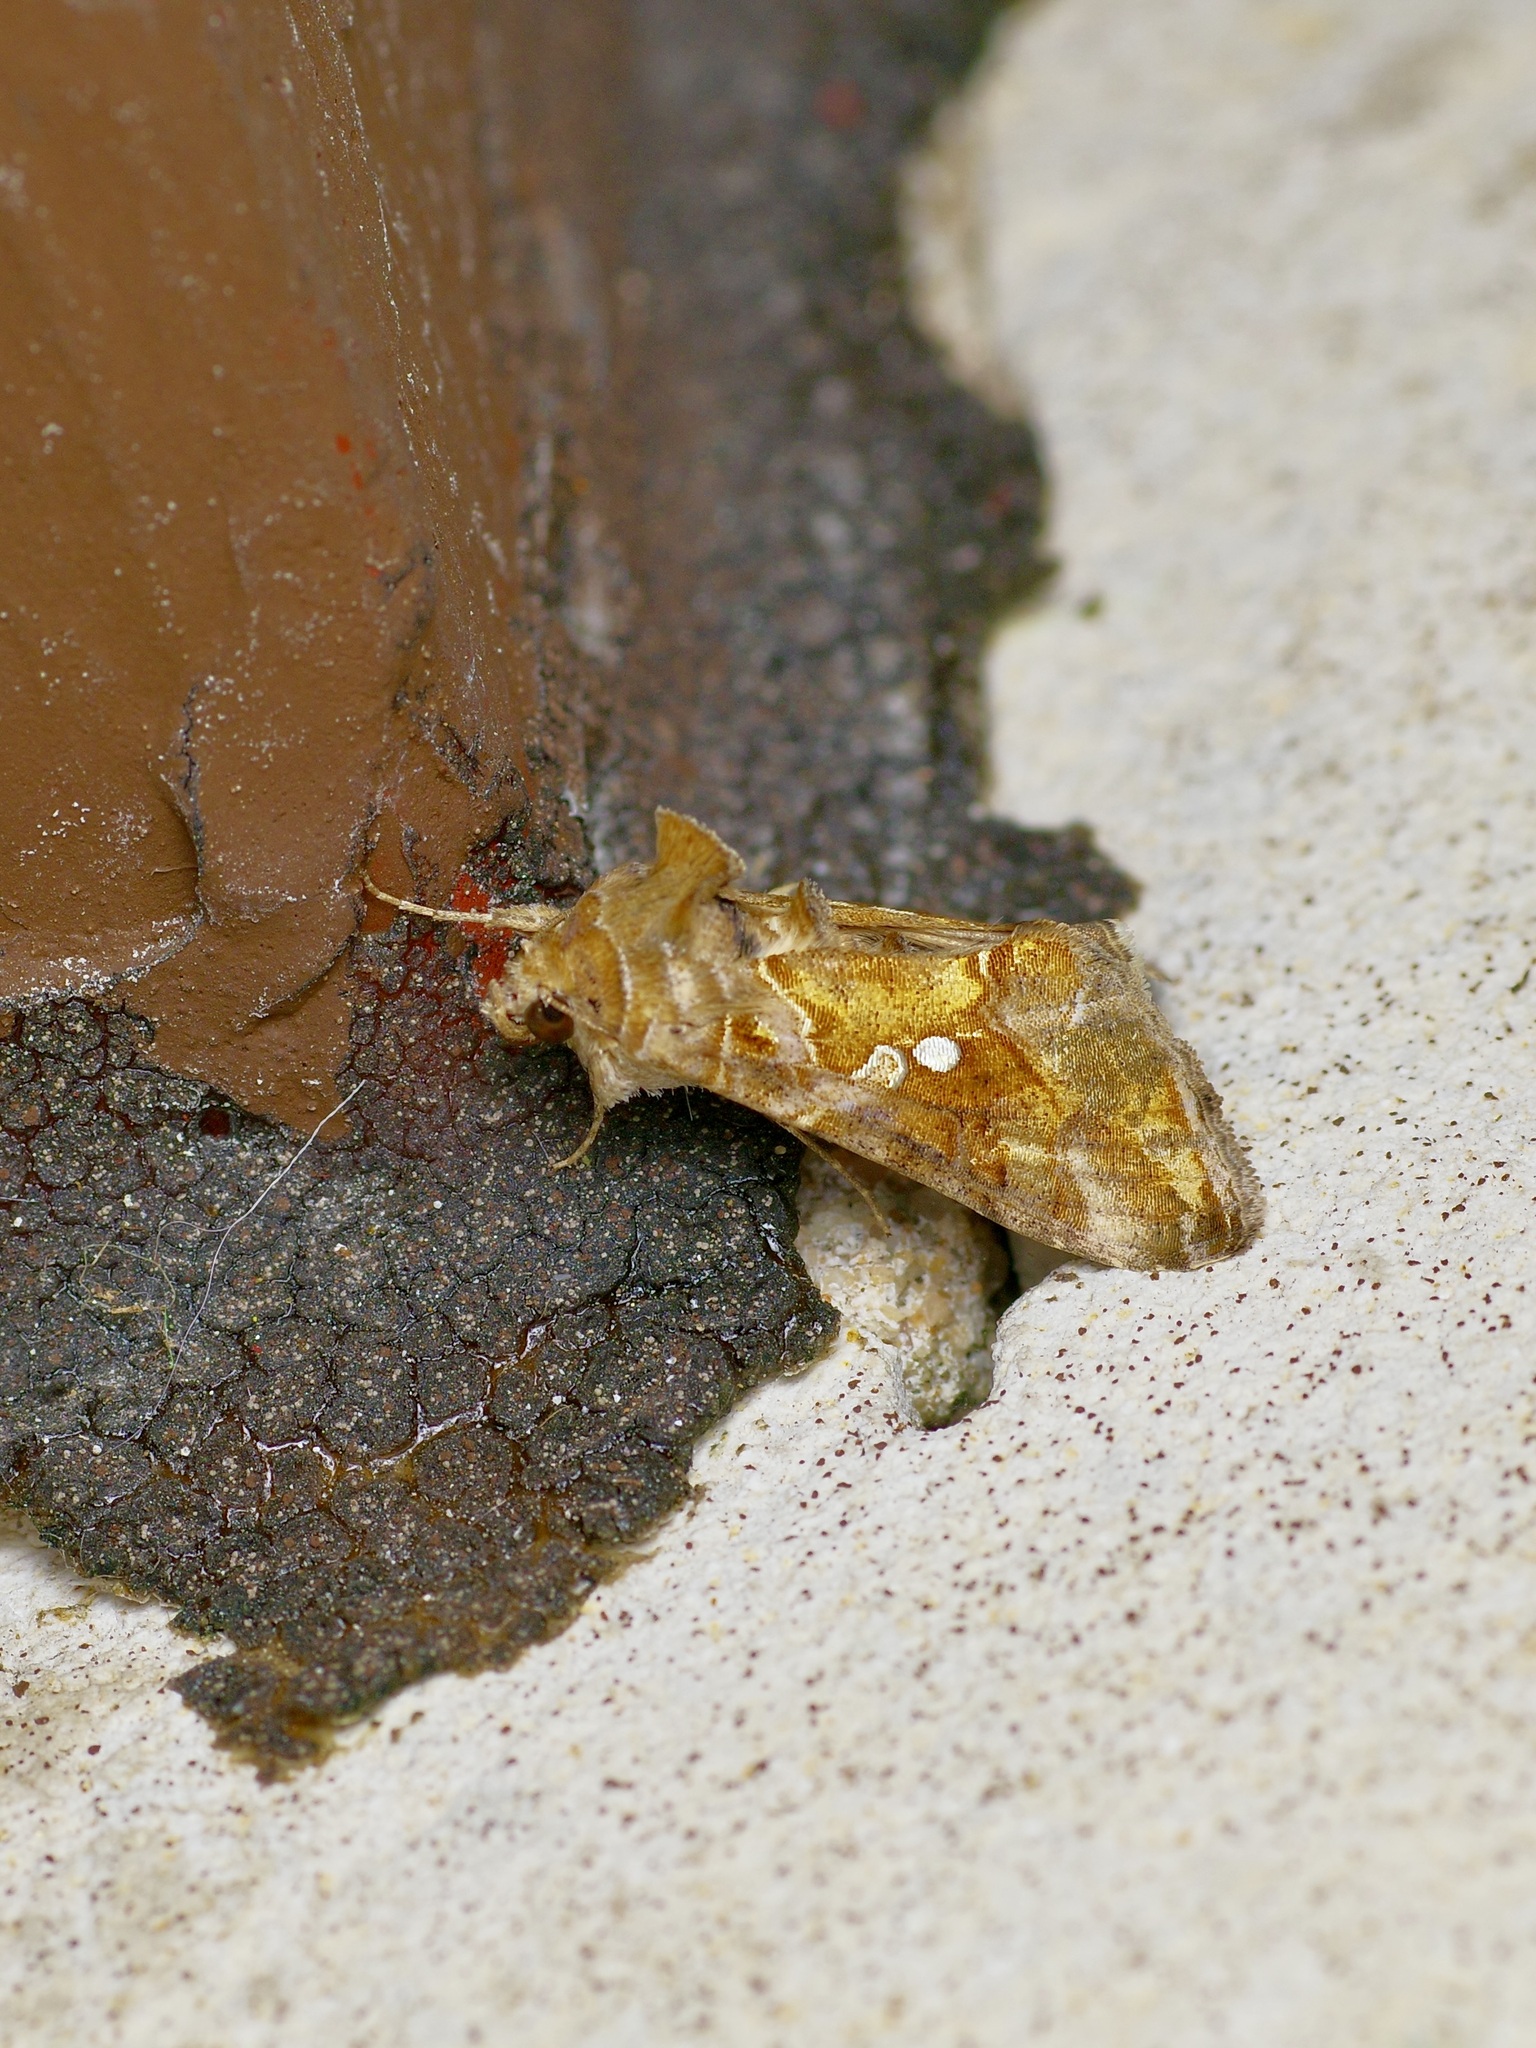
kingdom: Animalia
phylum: Arthropoda
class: Insecta
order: Lepidoptera
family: Noctuidae
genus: Chrysodeixis
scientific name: Chrysodeixis includens
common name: Cutworm moth
